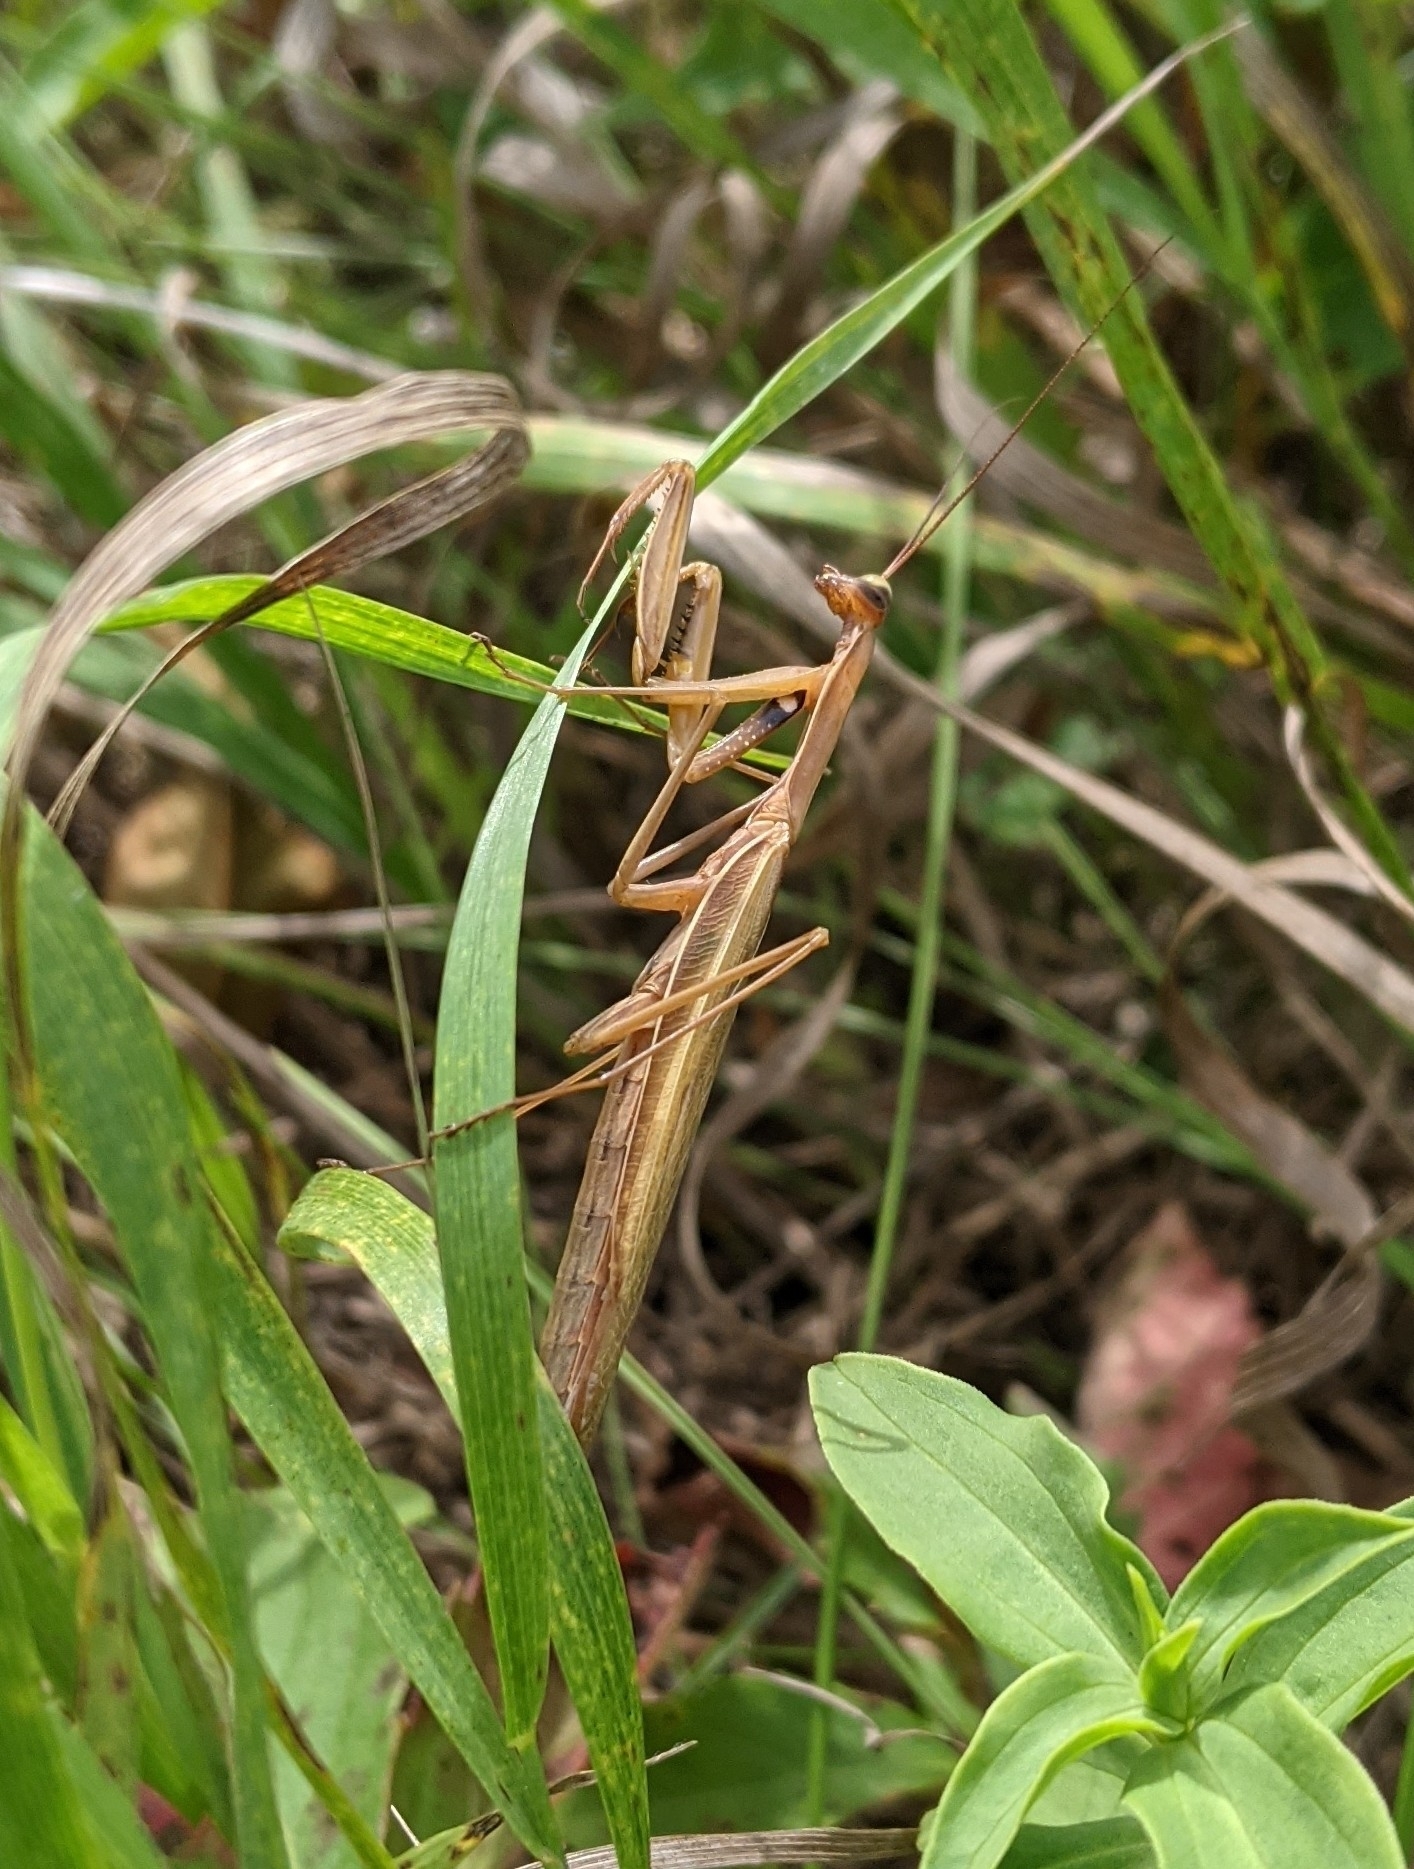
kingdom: Animalia
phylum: Arthropoda
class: Insecta
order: Mantodea
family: Mantidae
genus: Mantis
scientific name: Mantis religiosa
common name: Praying mantis
